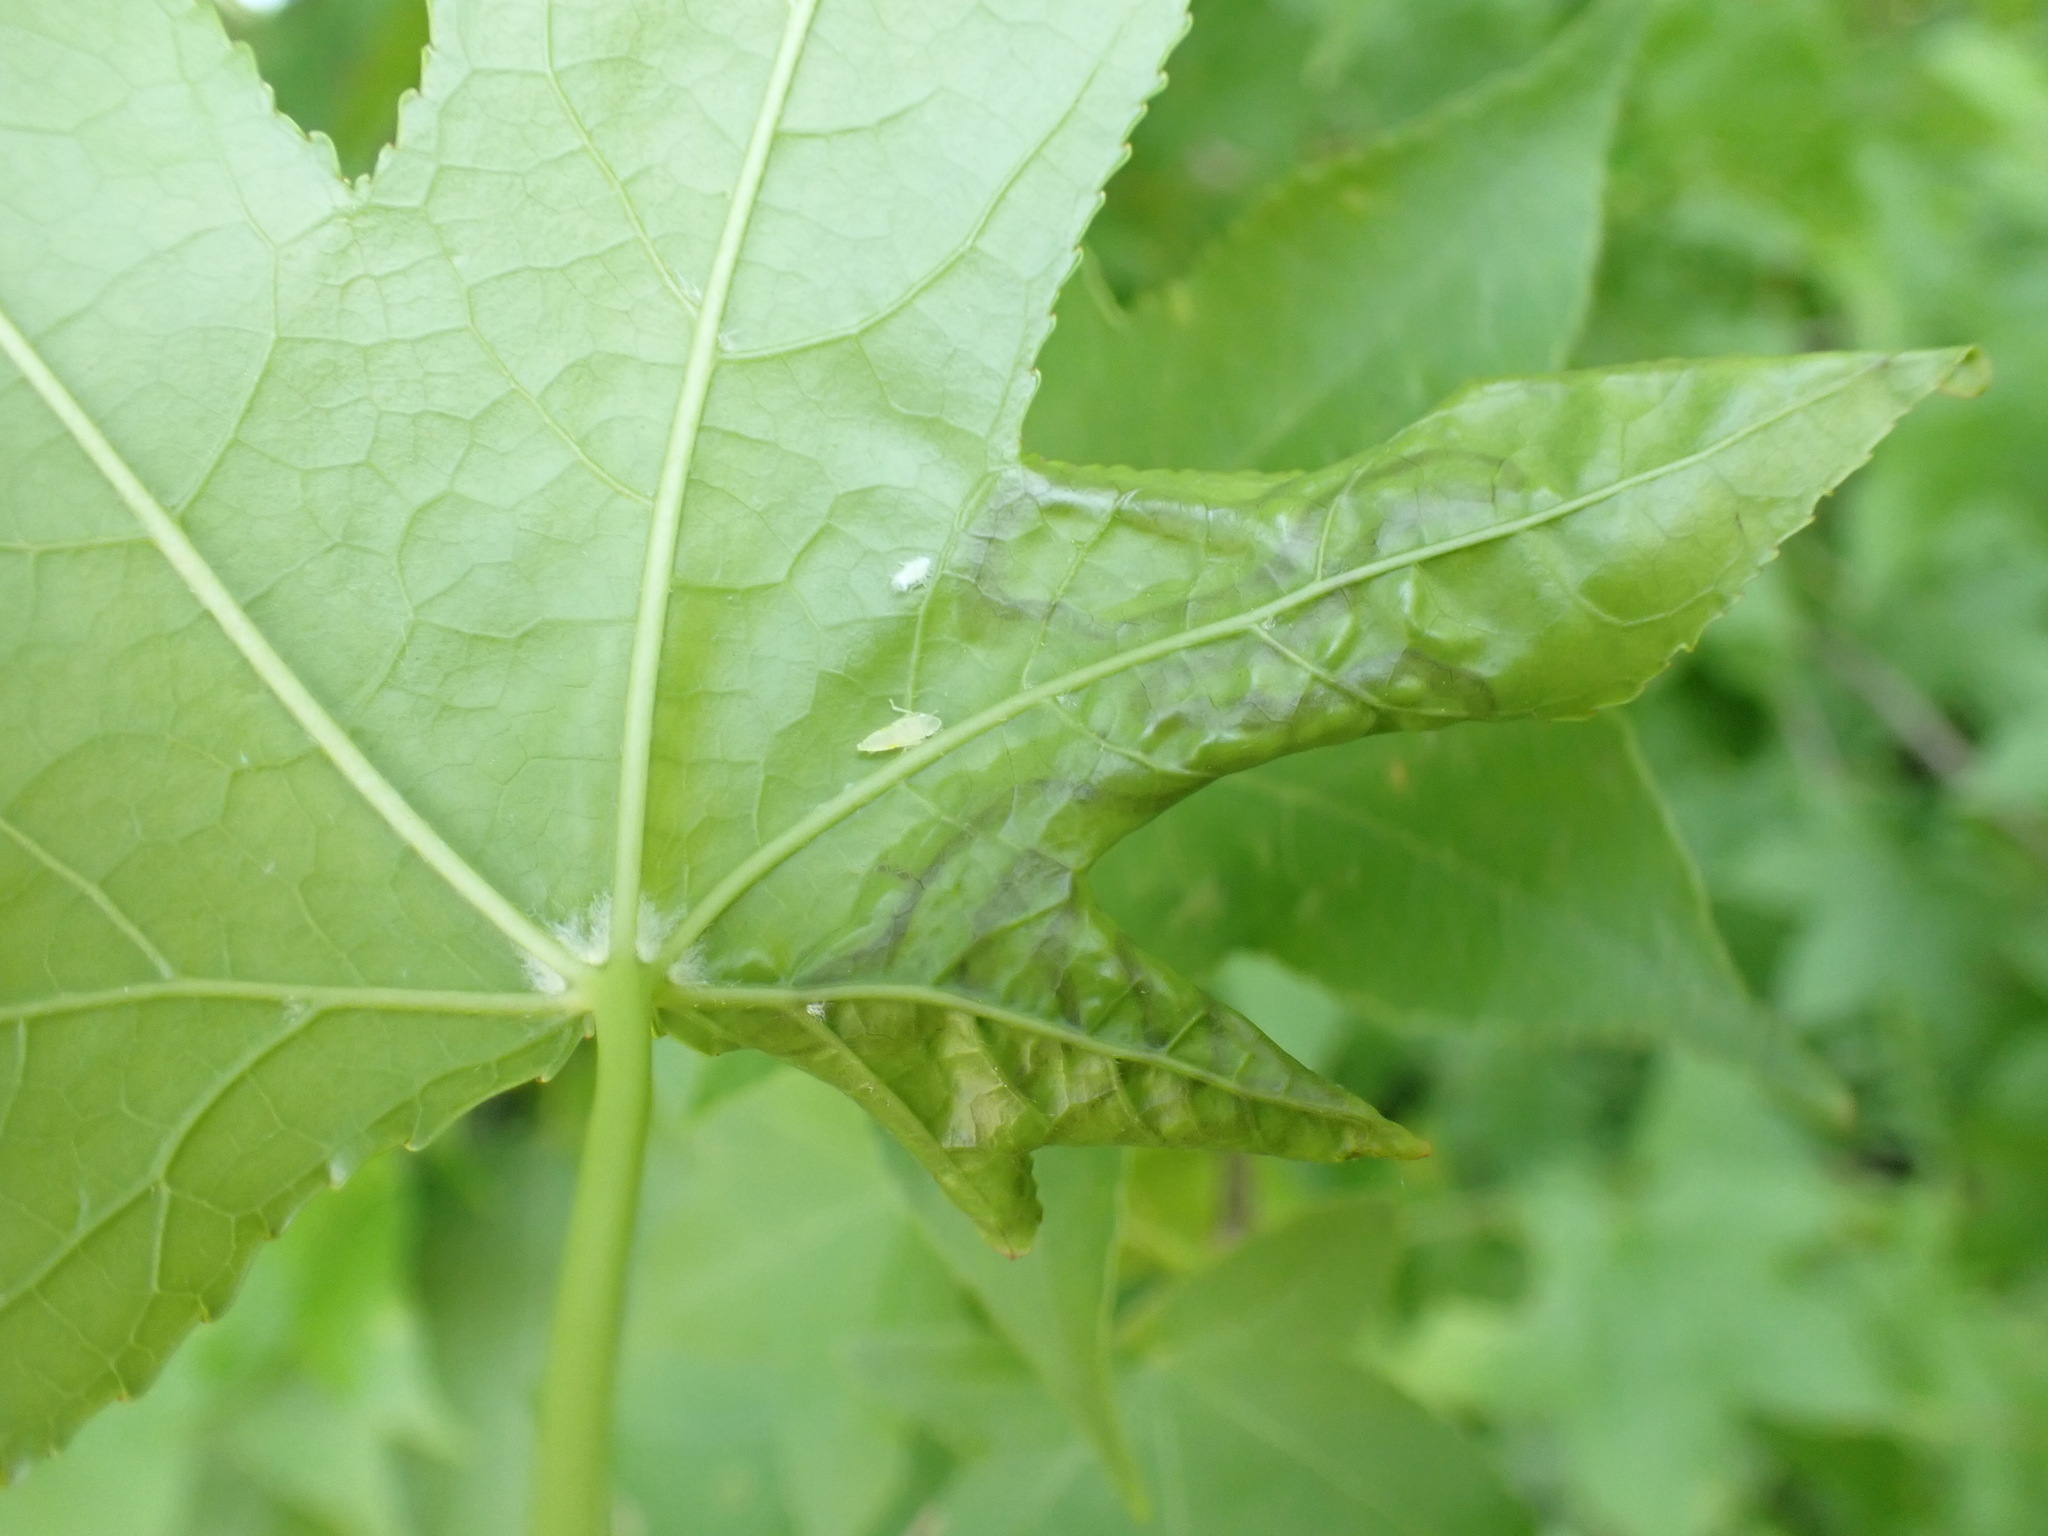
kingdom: Animalia
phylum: Arthropoda
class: Insecta
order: Lepidoptera
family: Gracillariidae
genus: Phyllocnistis
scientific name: Phyllocnistis liquidambarisella
